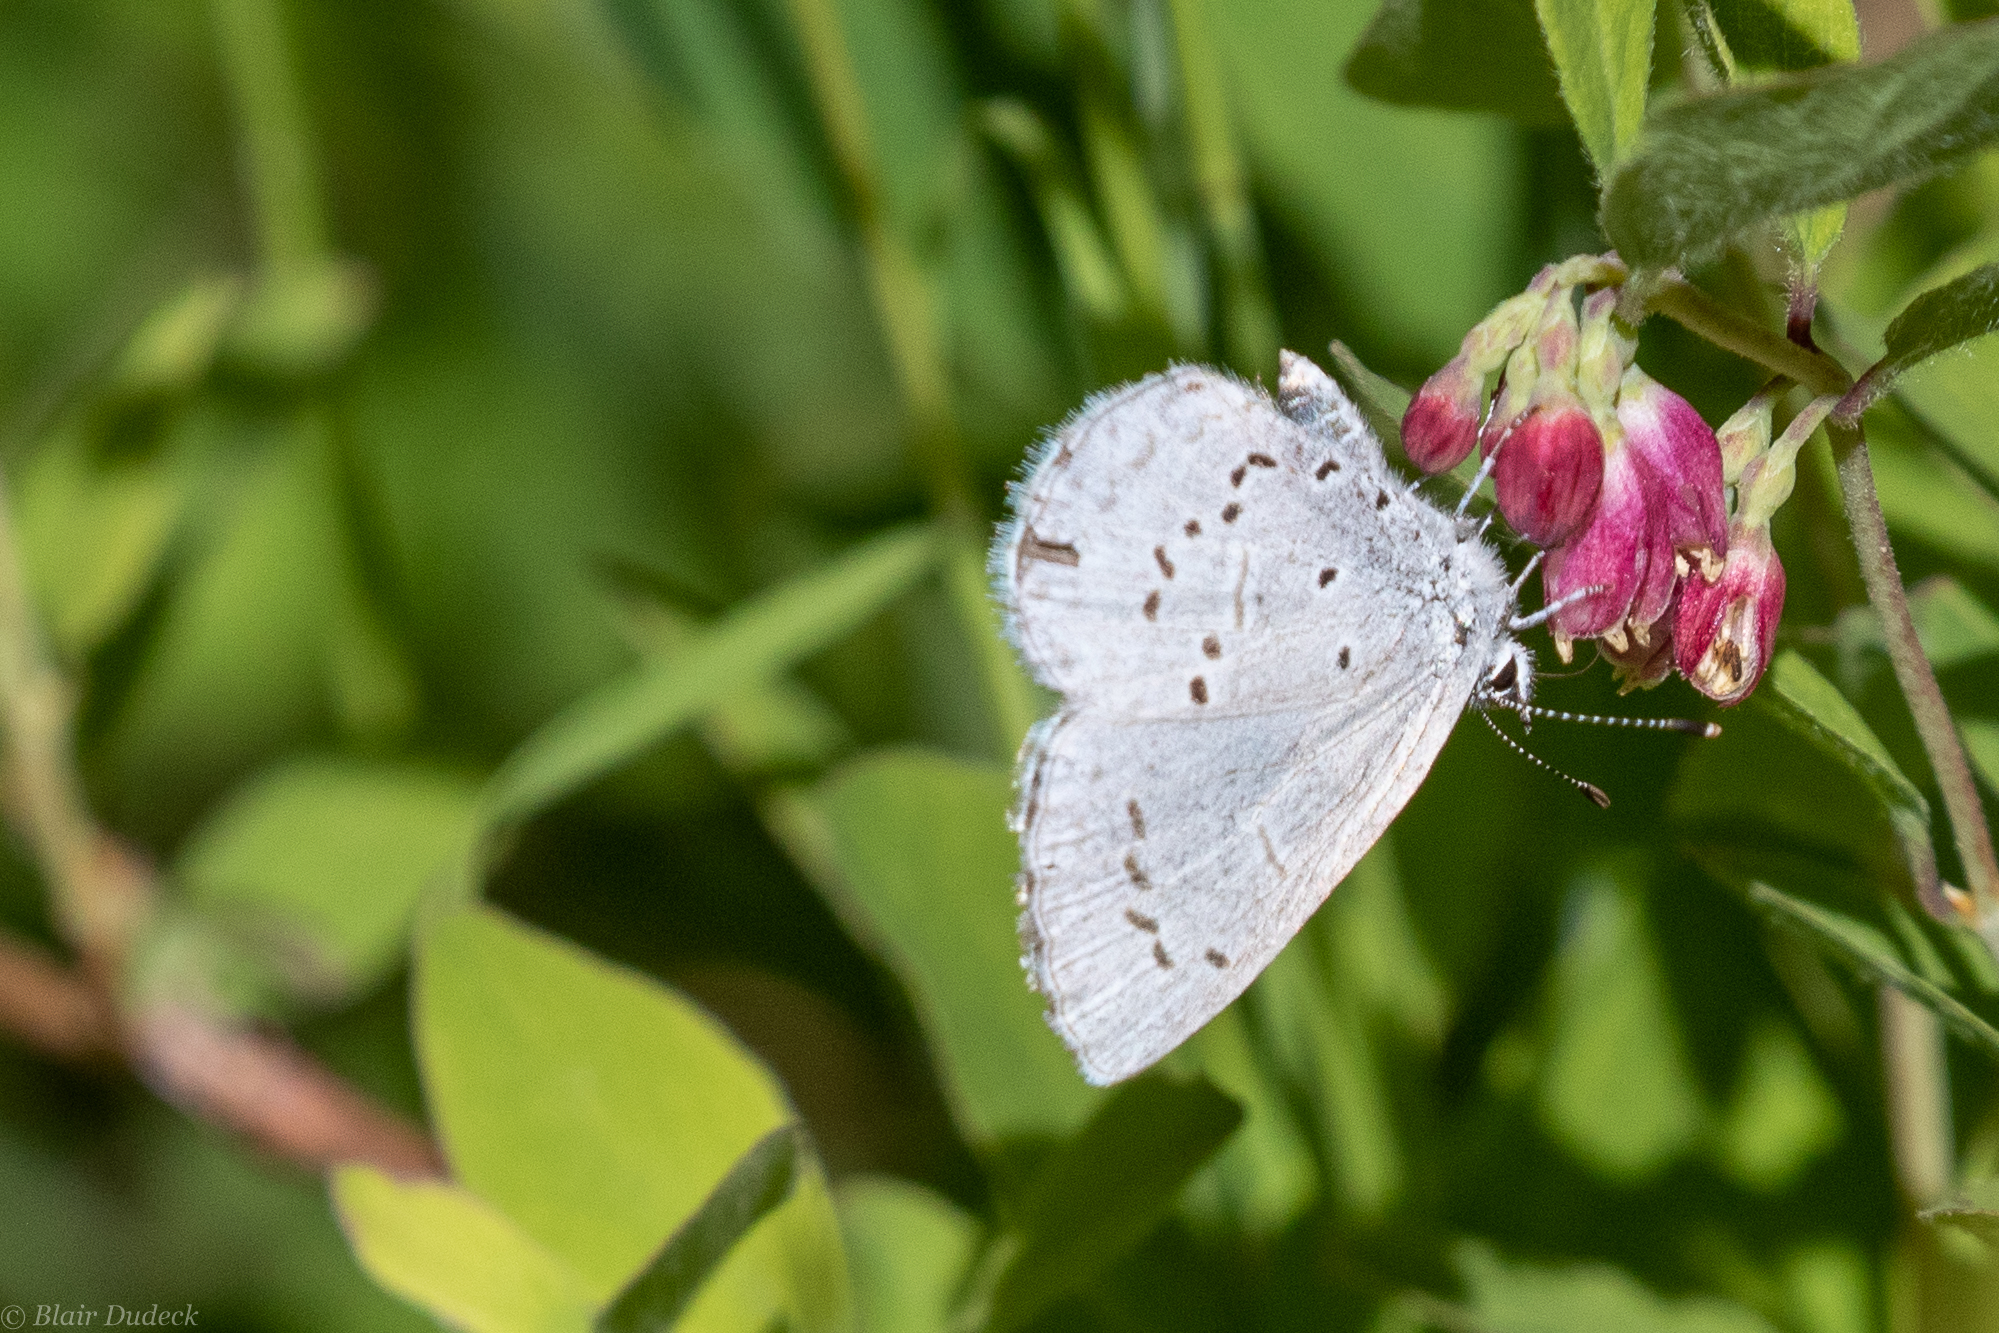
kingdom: Animalia
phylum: Arthropoda
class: Insecta
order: Lepidoptera
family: Lycaenidae
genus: Celastrina
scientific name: Celastrina ladon
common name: Spring azure
